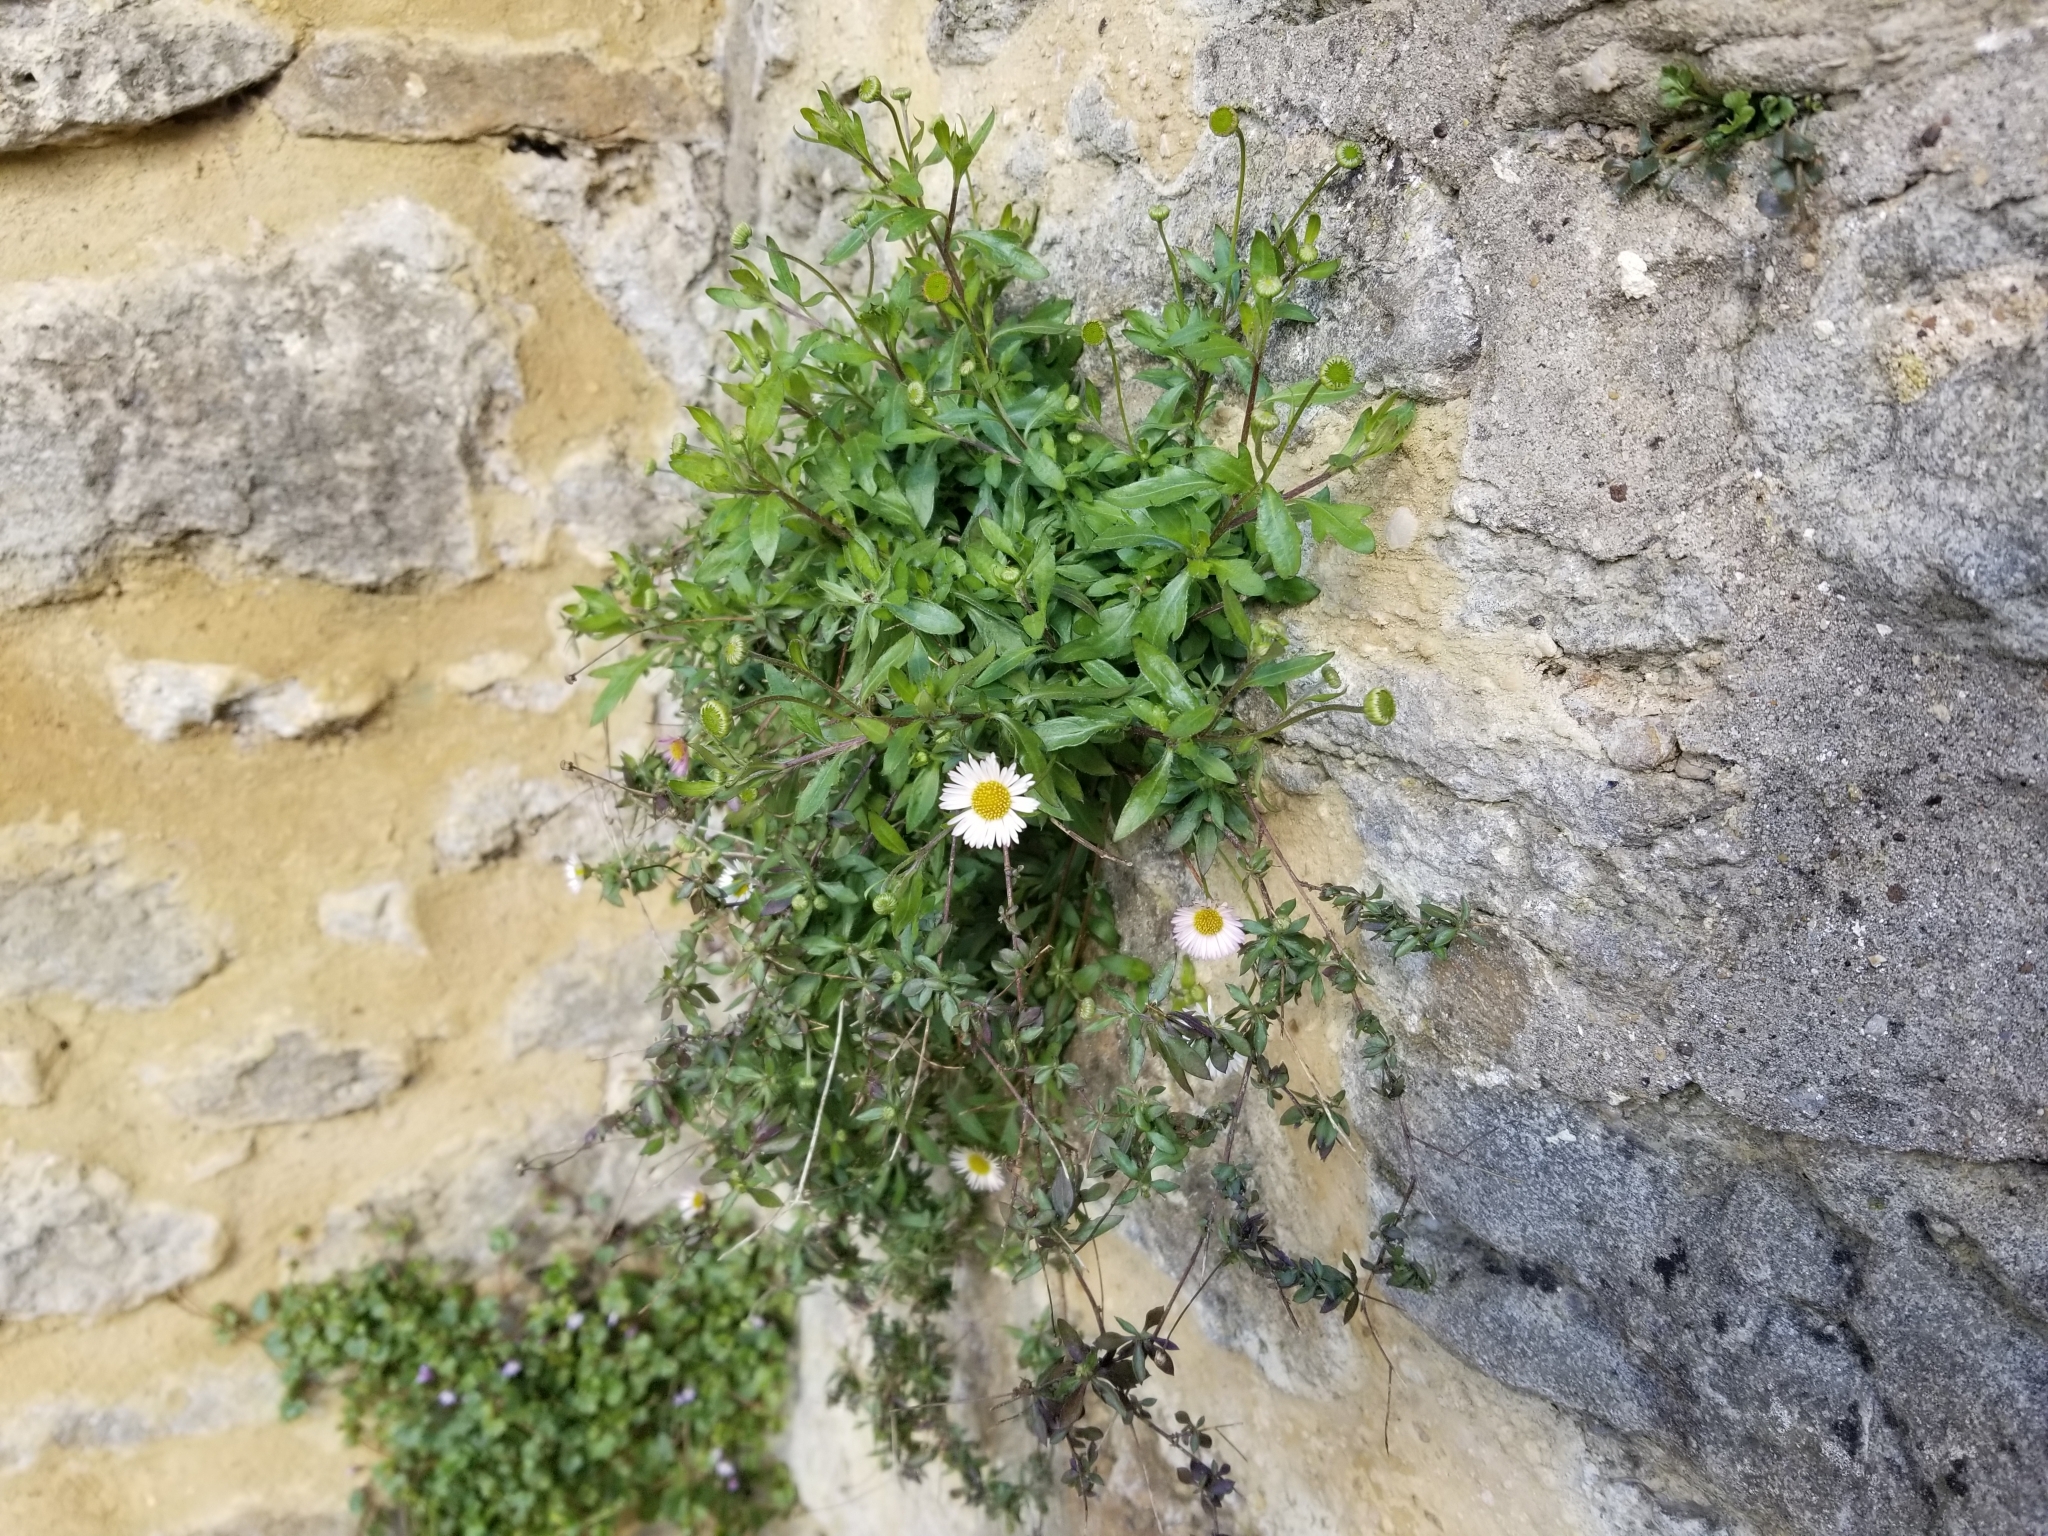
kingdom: Plantae
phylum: Tracheophyta
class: Magnoliopsida
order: Asterales
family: Asteraceae
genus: Erigeron
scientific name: Erigeron karvinskianus
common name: Mexican fleabane
